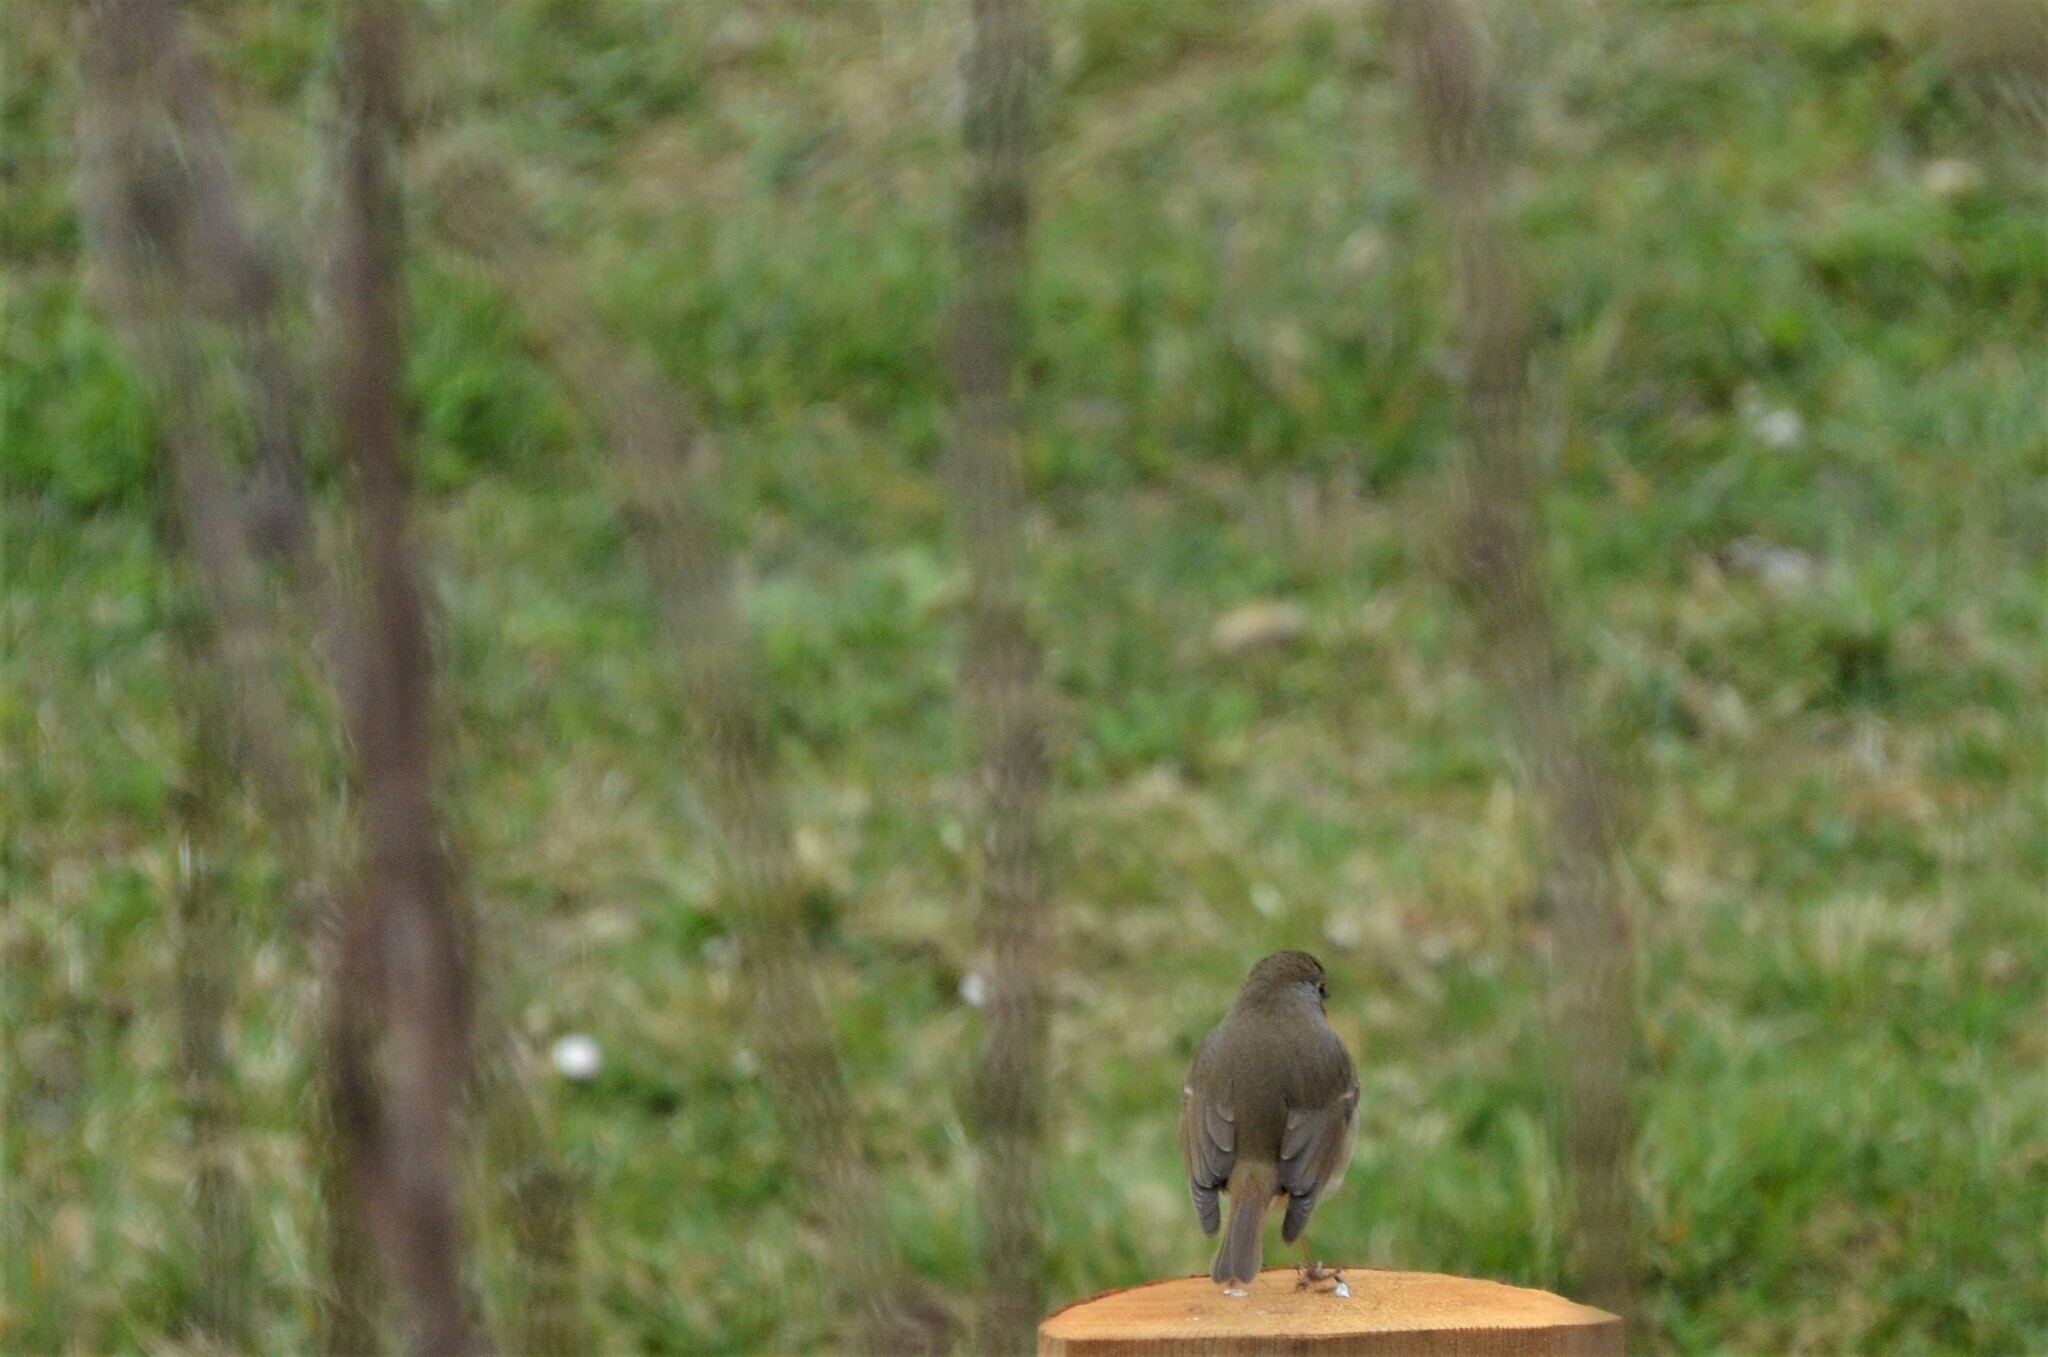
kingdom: Animalia
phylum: Chordata
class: Aves
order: Passeriformes
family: Muscicapidae
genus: Phoenicurus
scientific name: Phoenicurus ochruros
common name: Black redstart
